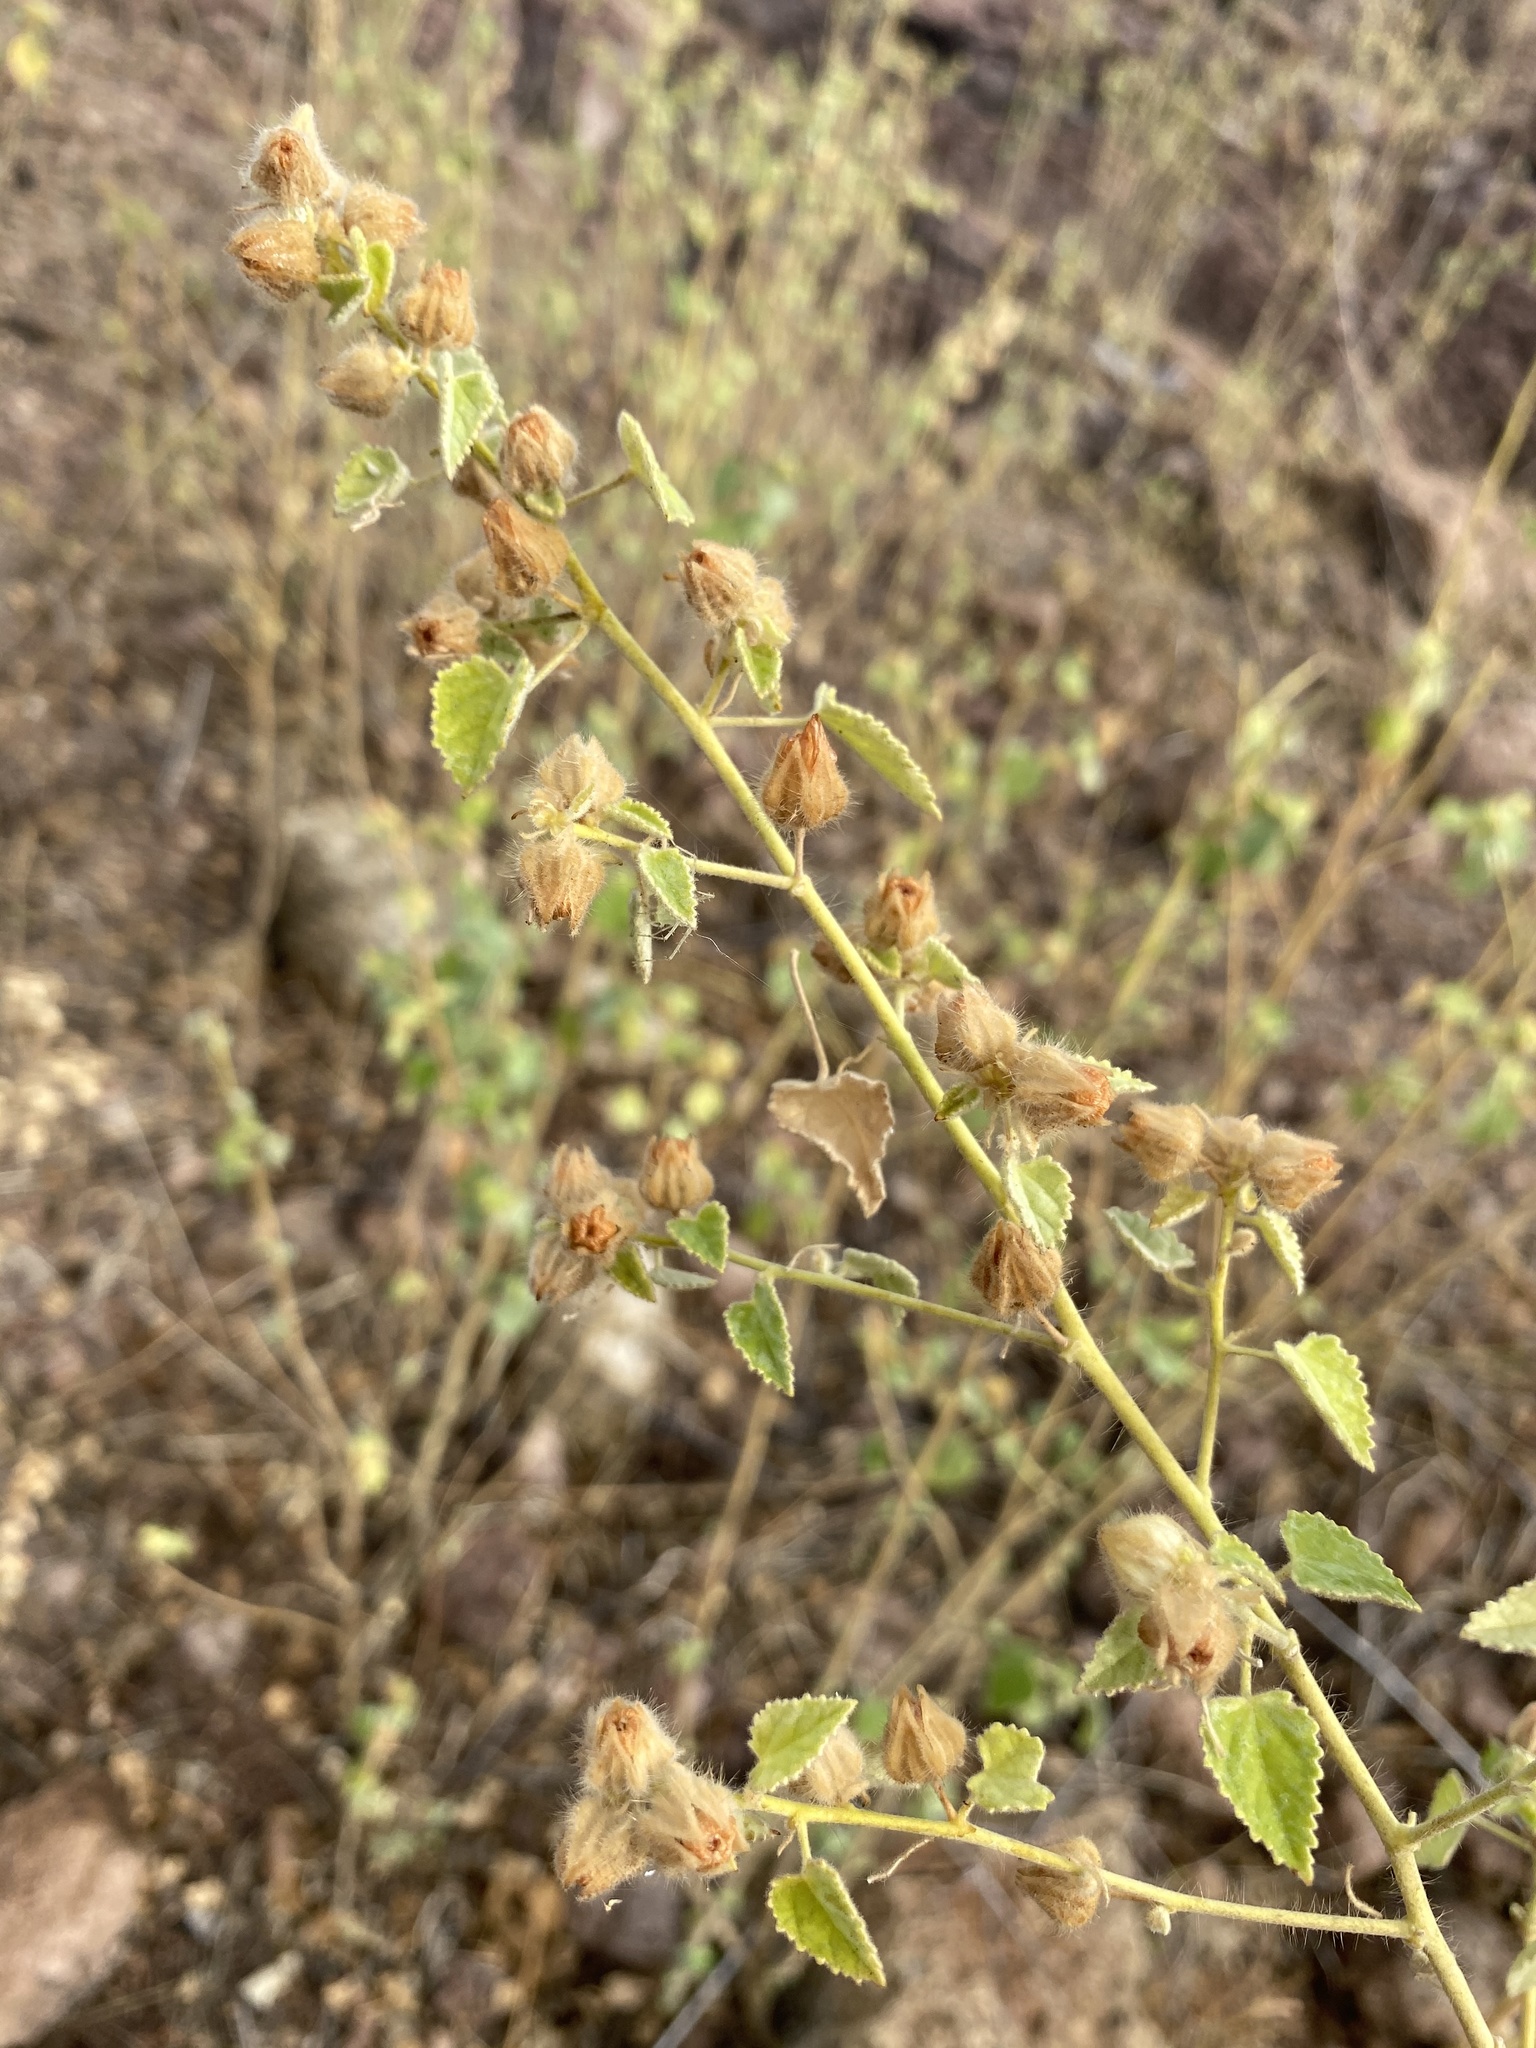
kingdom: Plantae
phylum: Tracheophyta
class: Magnoliopsida
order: Malvales
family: Malvaceae
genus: Sida
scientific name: Sida cordifolia
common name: Ilima
